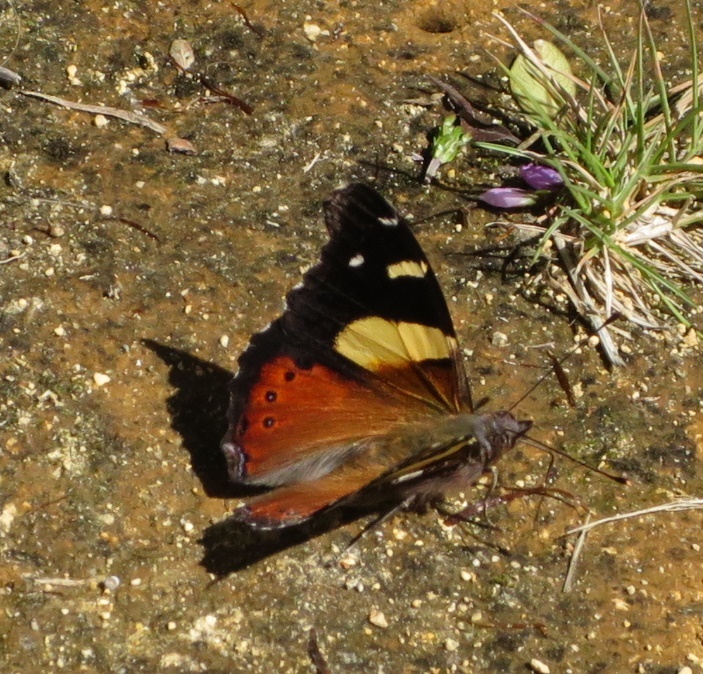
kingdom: Animalia
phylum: Arthropoda
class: Insecta
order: Lepidoptera
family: Nymphalidae
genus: Vanessa
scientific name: Vanessa itea
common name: Yellow admiral
